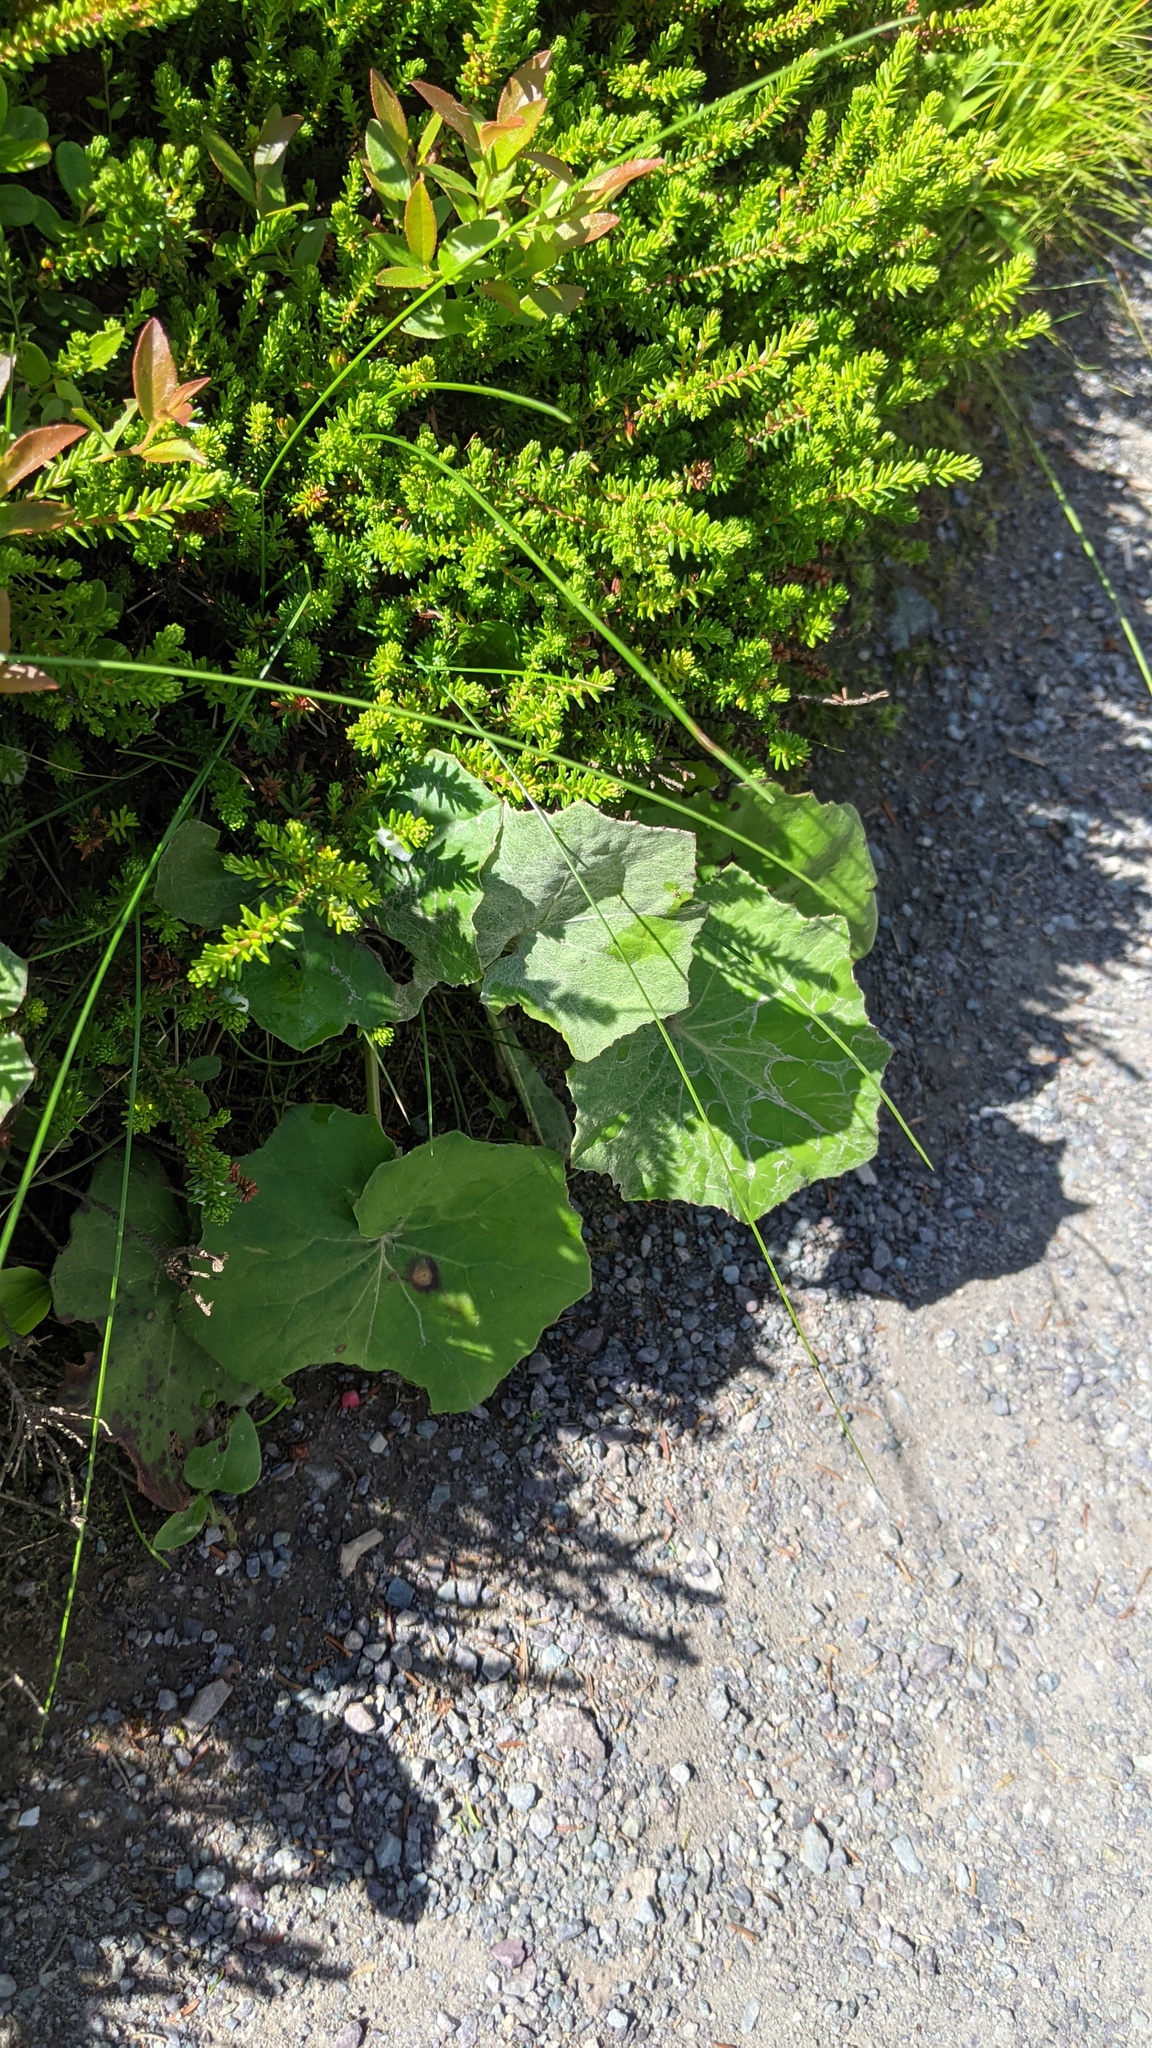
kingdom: Plantae
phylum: Tracheophyta
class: Magnoliopsida
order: Asterales
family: Asteraceae
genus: Tussilago
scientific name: Tussilago farfara
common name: Coltsfoot
